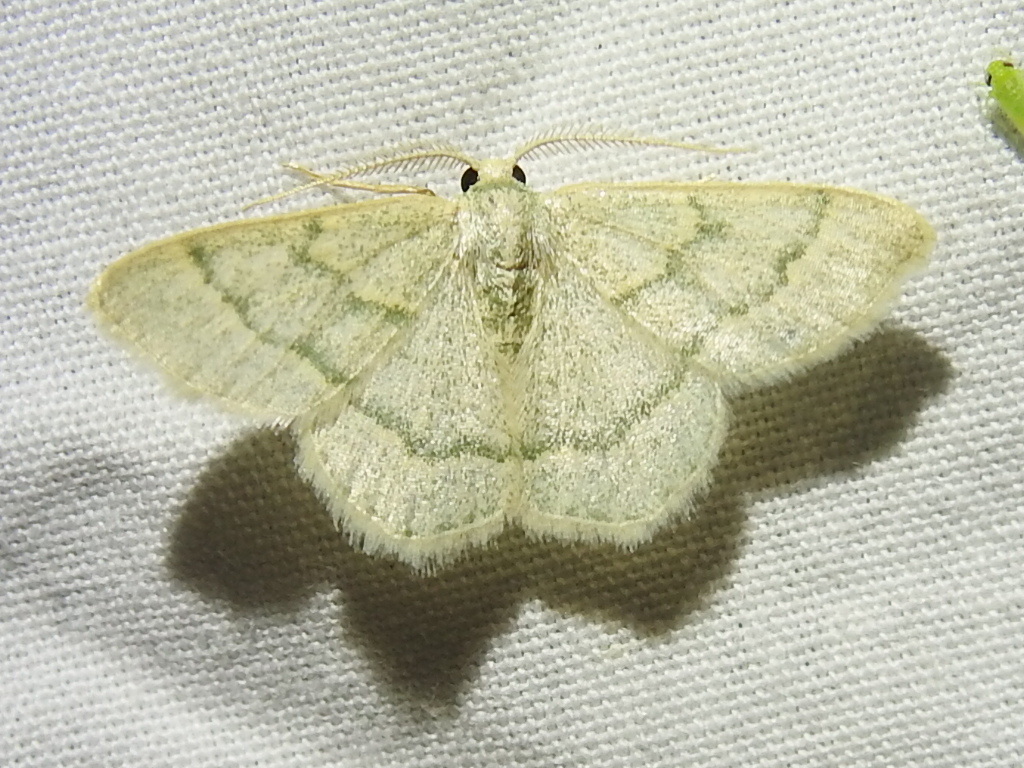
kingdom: Animalia
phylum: Arthropoda
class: Insecta
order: Lepidoptera
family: Geometridae
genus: Chlorochlamys
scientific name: Chlorochlamys appellaria
